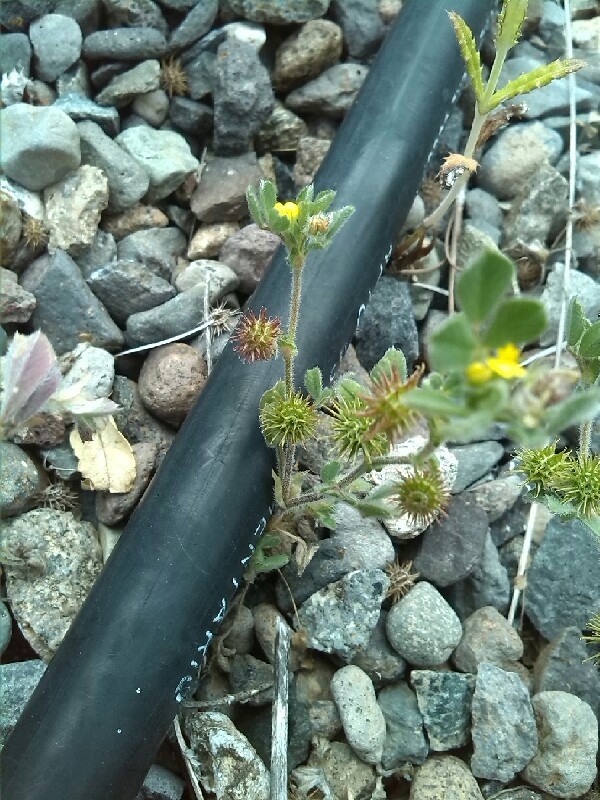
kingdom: Plantae
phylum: Tracheophyta
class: Magnoliopsida
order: Fabales
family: Fabaceae
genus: Medicago
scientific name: Medicago minima
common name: Little bur-clover
